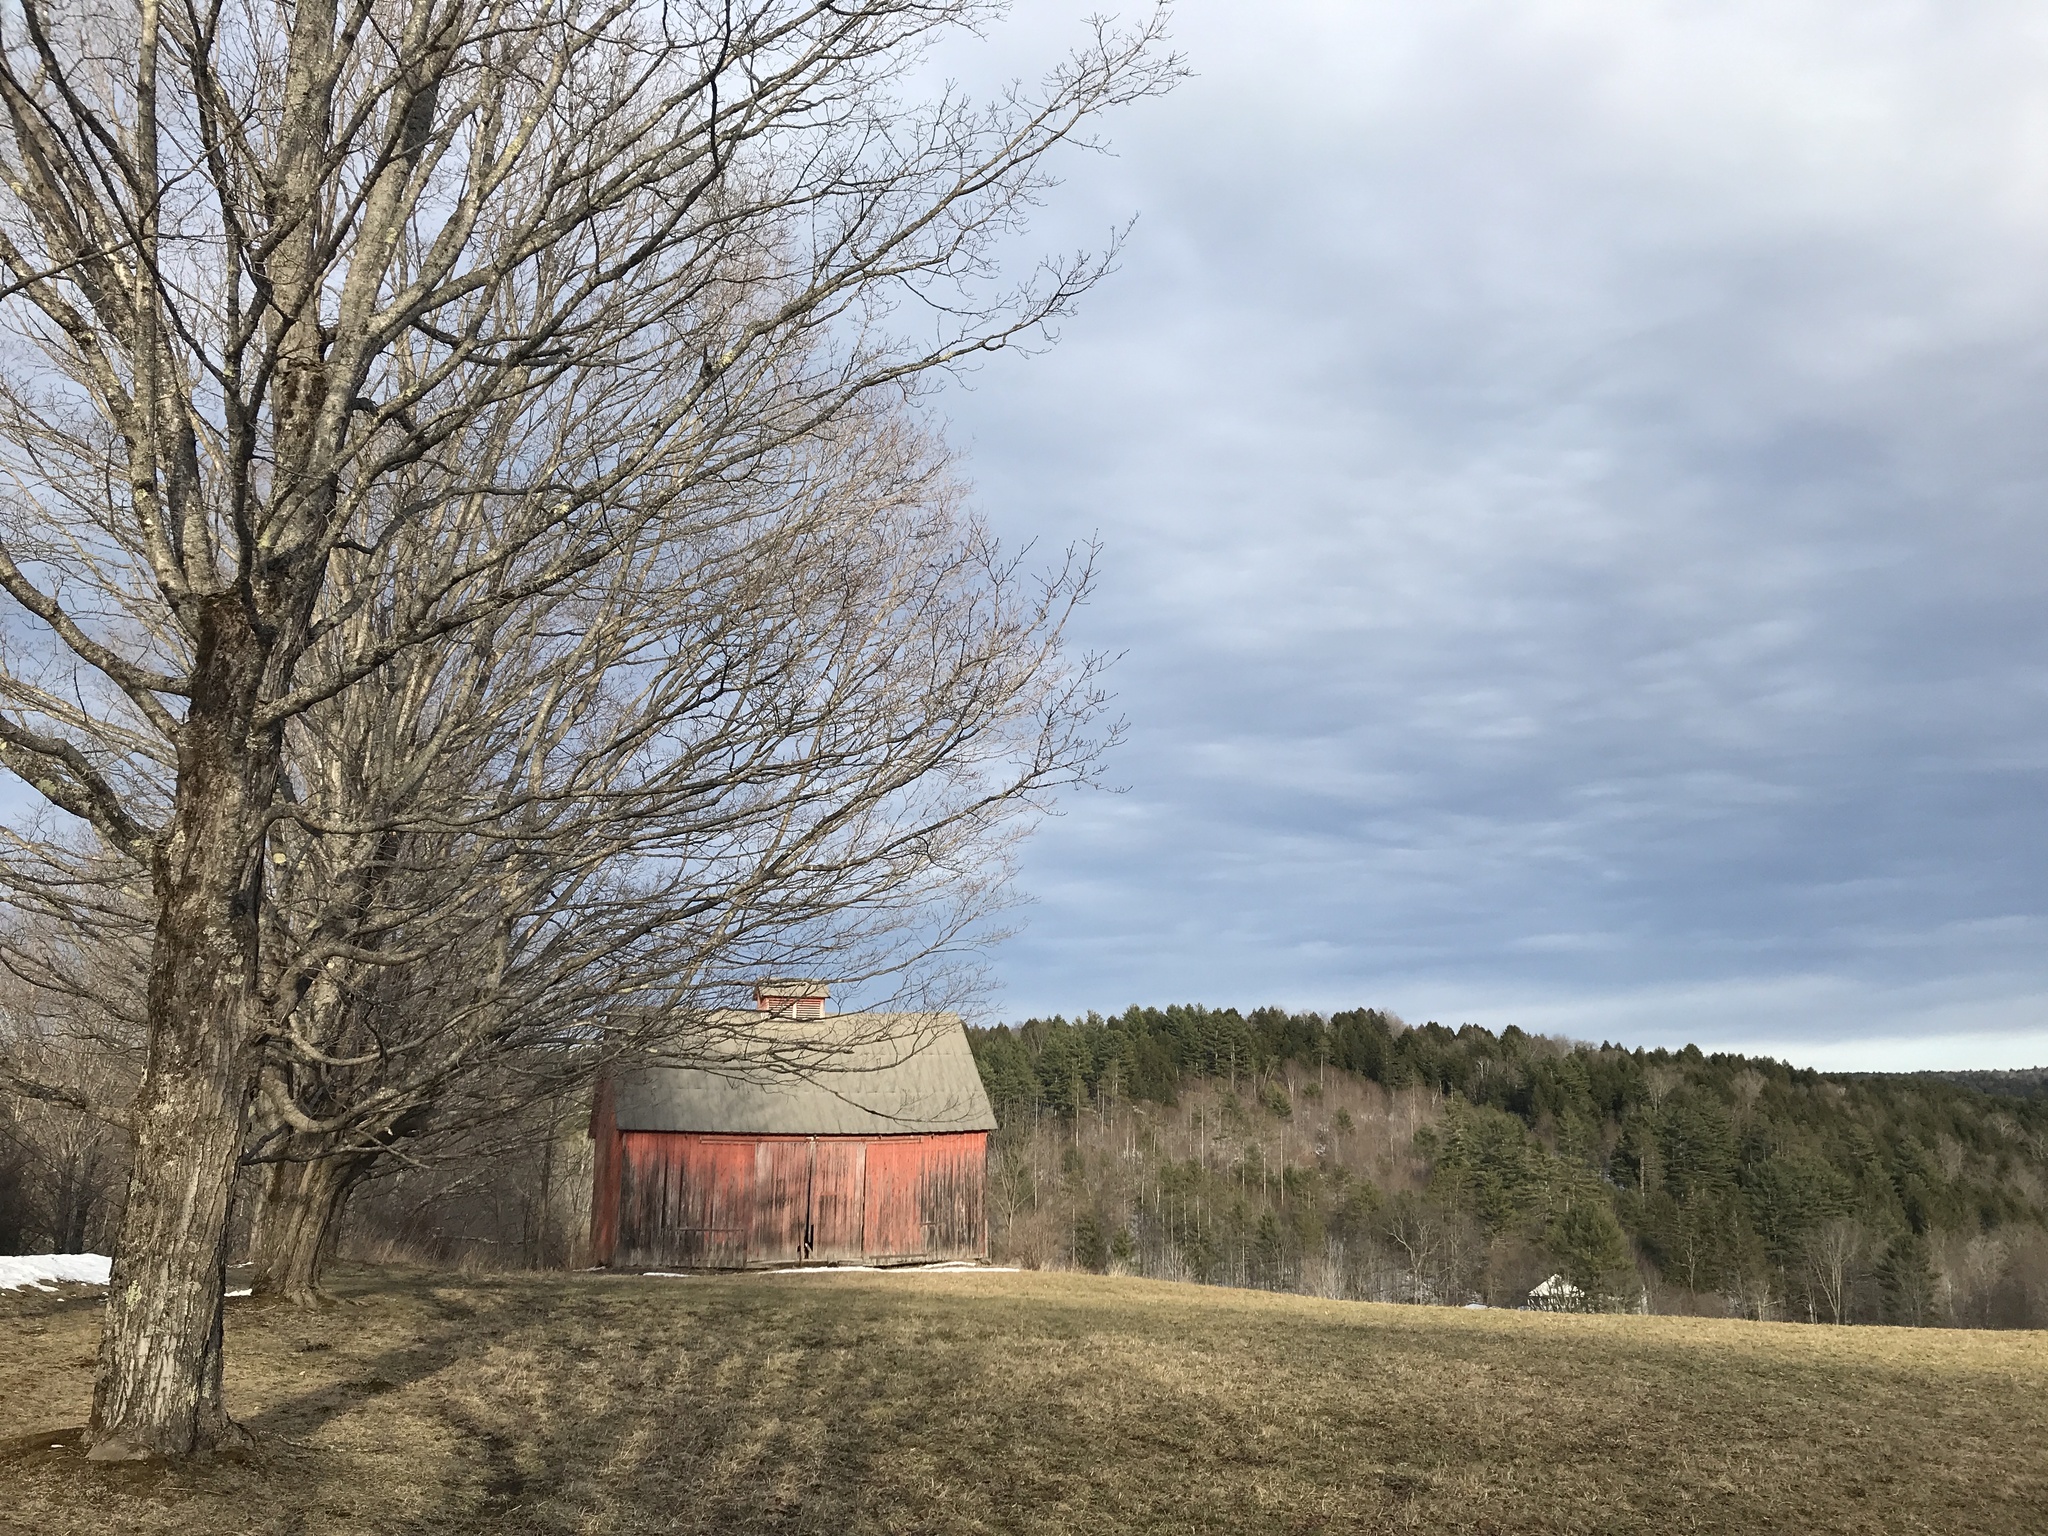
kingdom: Plantae
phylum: Tracheophyta
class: Magnoliopsida
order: Sapindales
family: Sapindaceae
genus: Acer
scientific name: Acer saccharum
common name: Sugar maple
